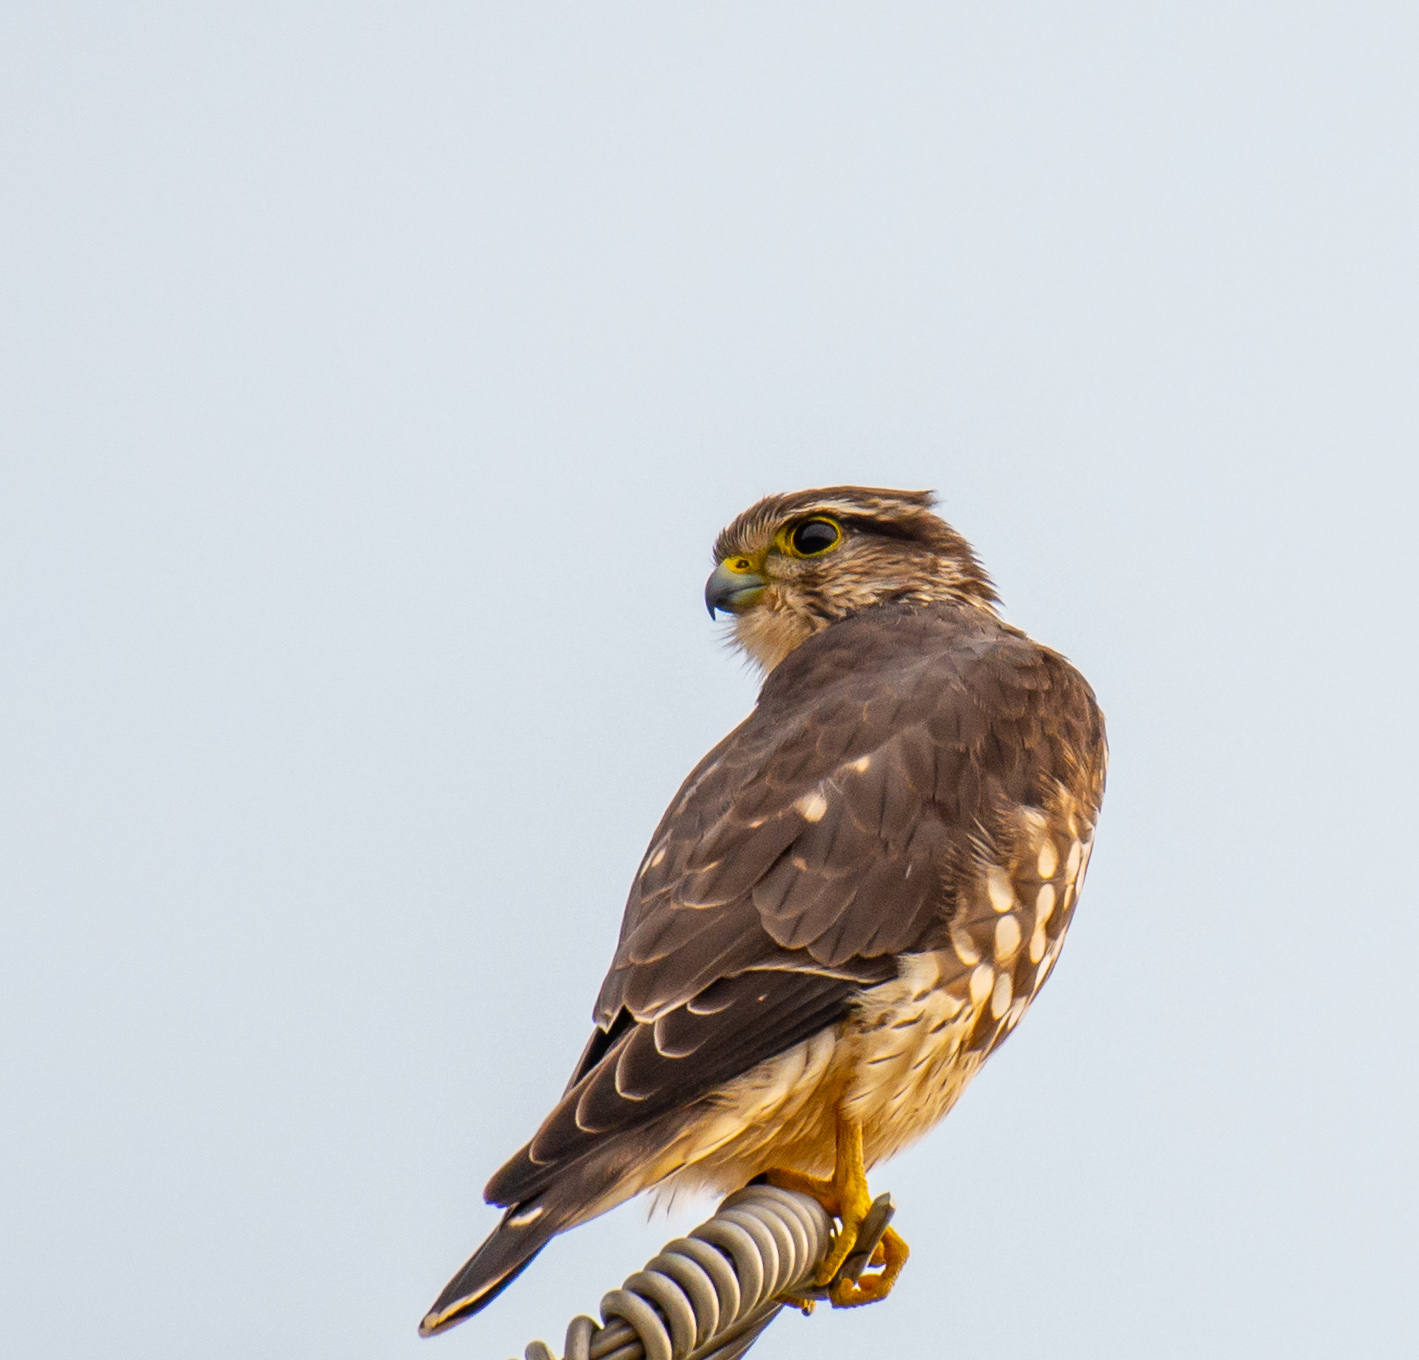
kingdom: Animalia
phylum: Chordata
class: Aves
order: Falconiformes
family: Falconidae
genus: Falco
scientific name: Falco columbarius
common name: Merlin
